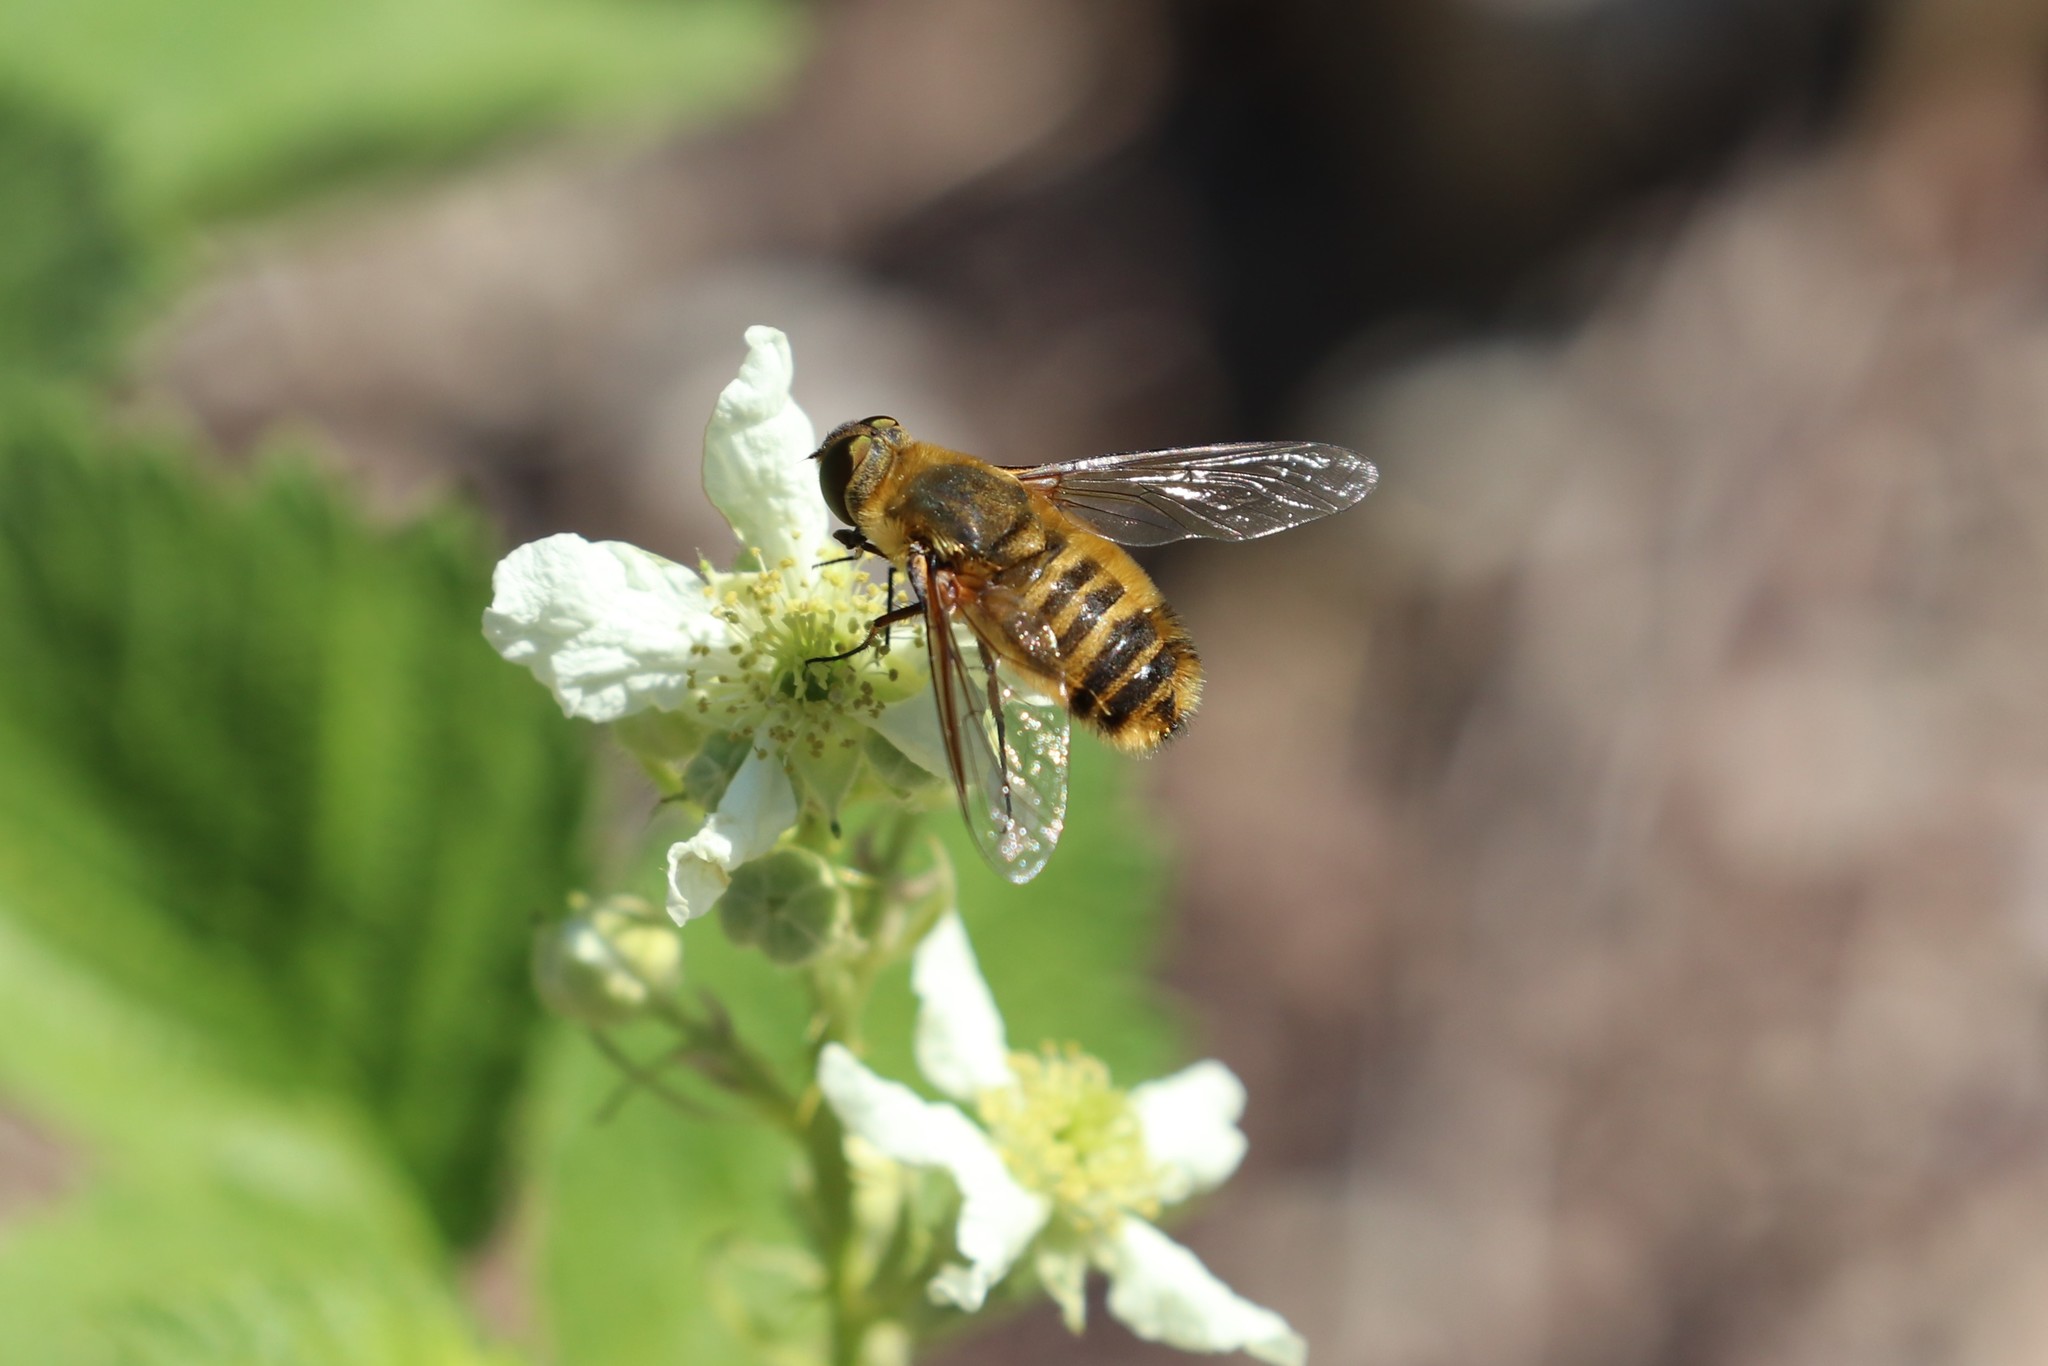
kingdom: Animalia
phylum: Arthropoda
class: Insecta
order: Diptera
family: Bombyliidae
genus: Villa
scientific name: Villa hottentotta
